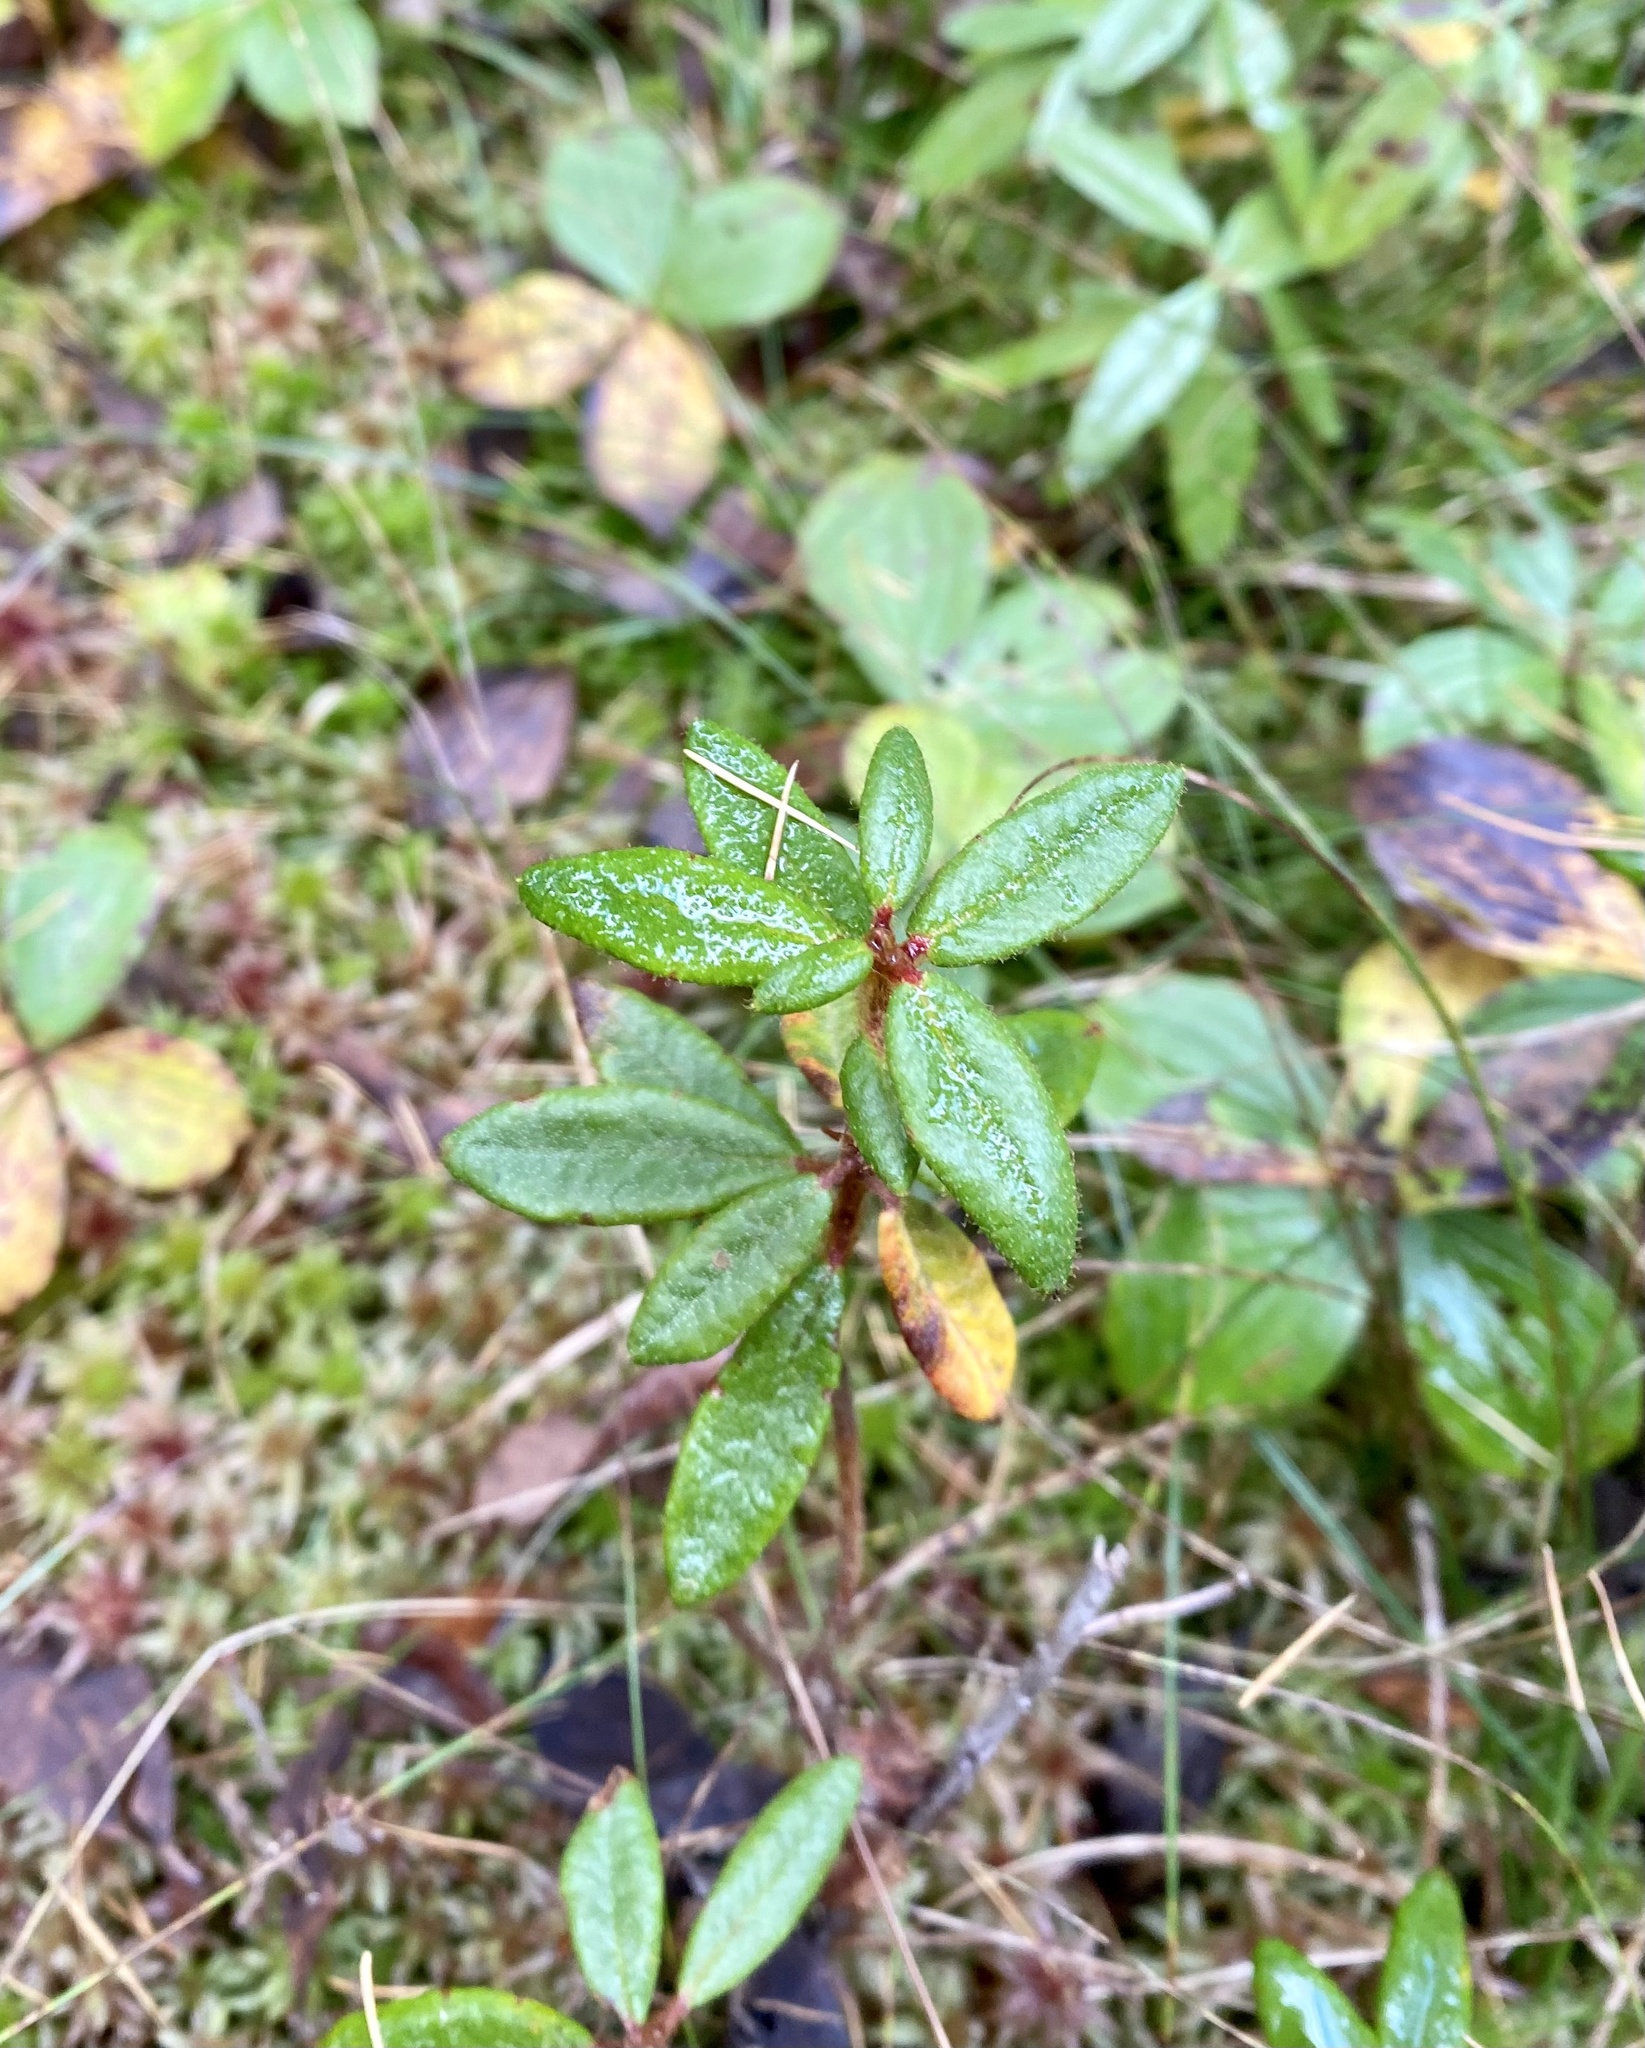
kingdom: Plantae
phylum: Tracheophyta
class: Magnoliopsida
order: Ericales
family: Ericaceae
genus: Rhododendron
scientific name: Rhododendron groenlandicum
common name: Bog labrador tea
